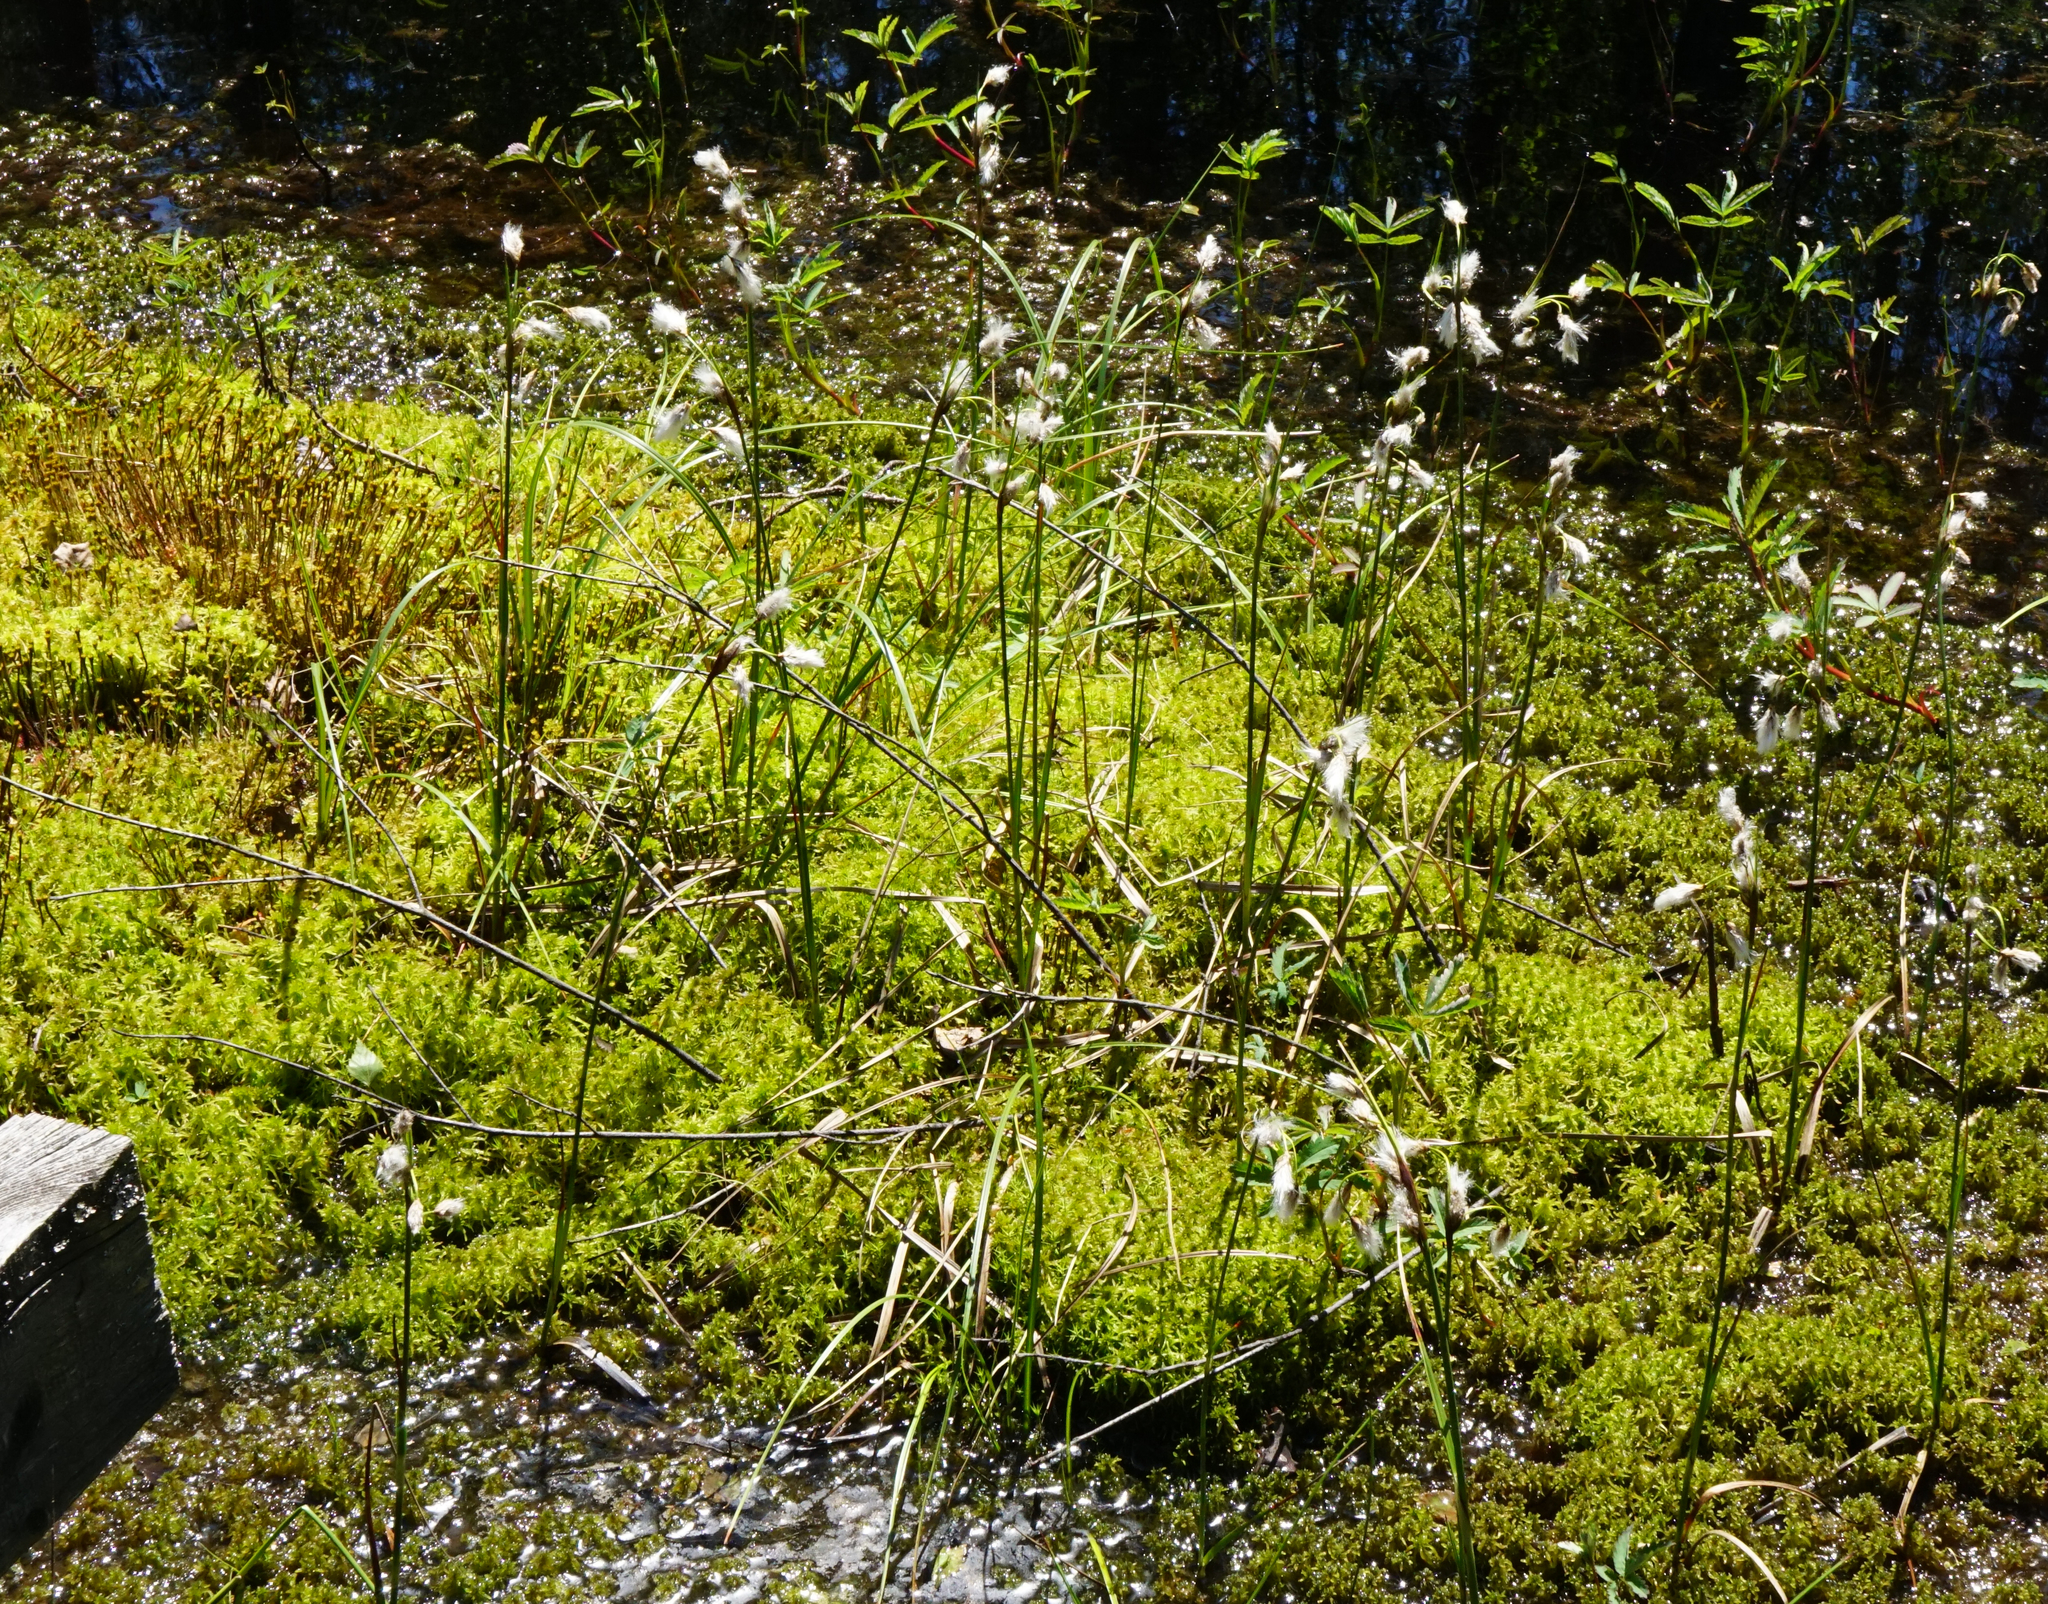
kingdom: Plantae
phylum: Tracheophyta
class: Liliopsida
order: Poales
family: Cyperaceae
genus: Eriophorum
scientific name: Eriophorum angustifolium
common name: Common cottongrass
